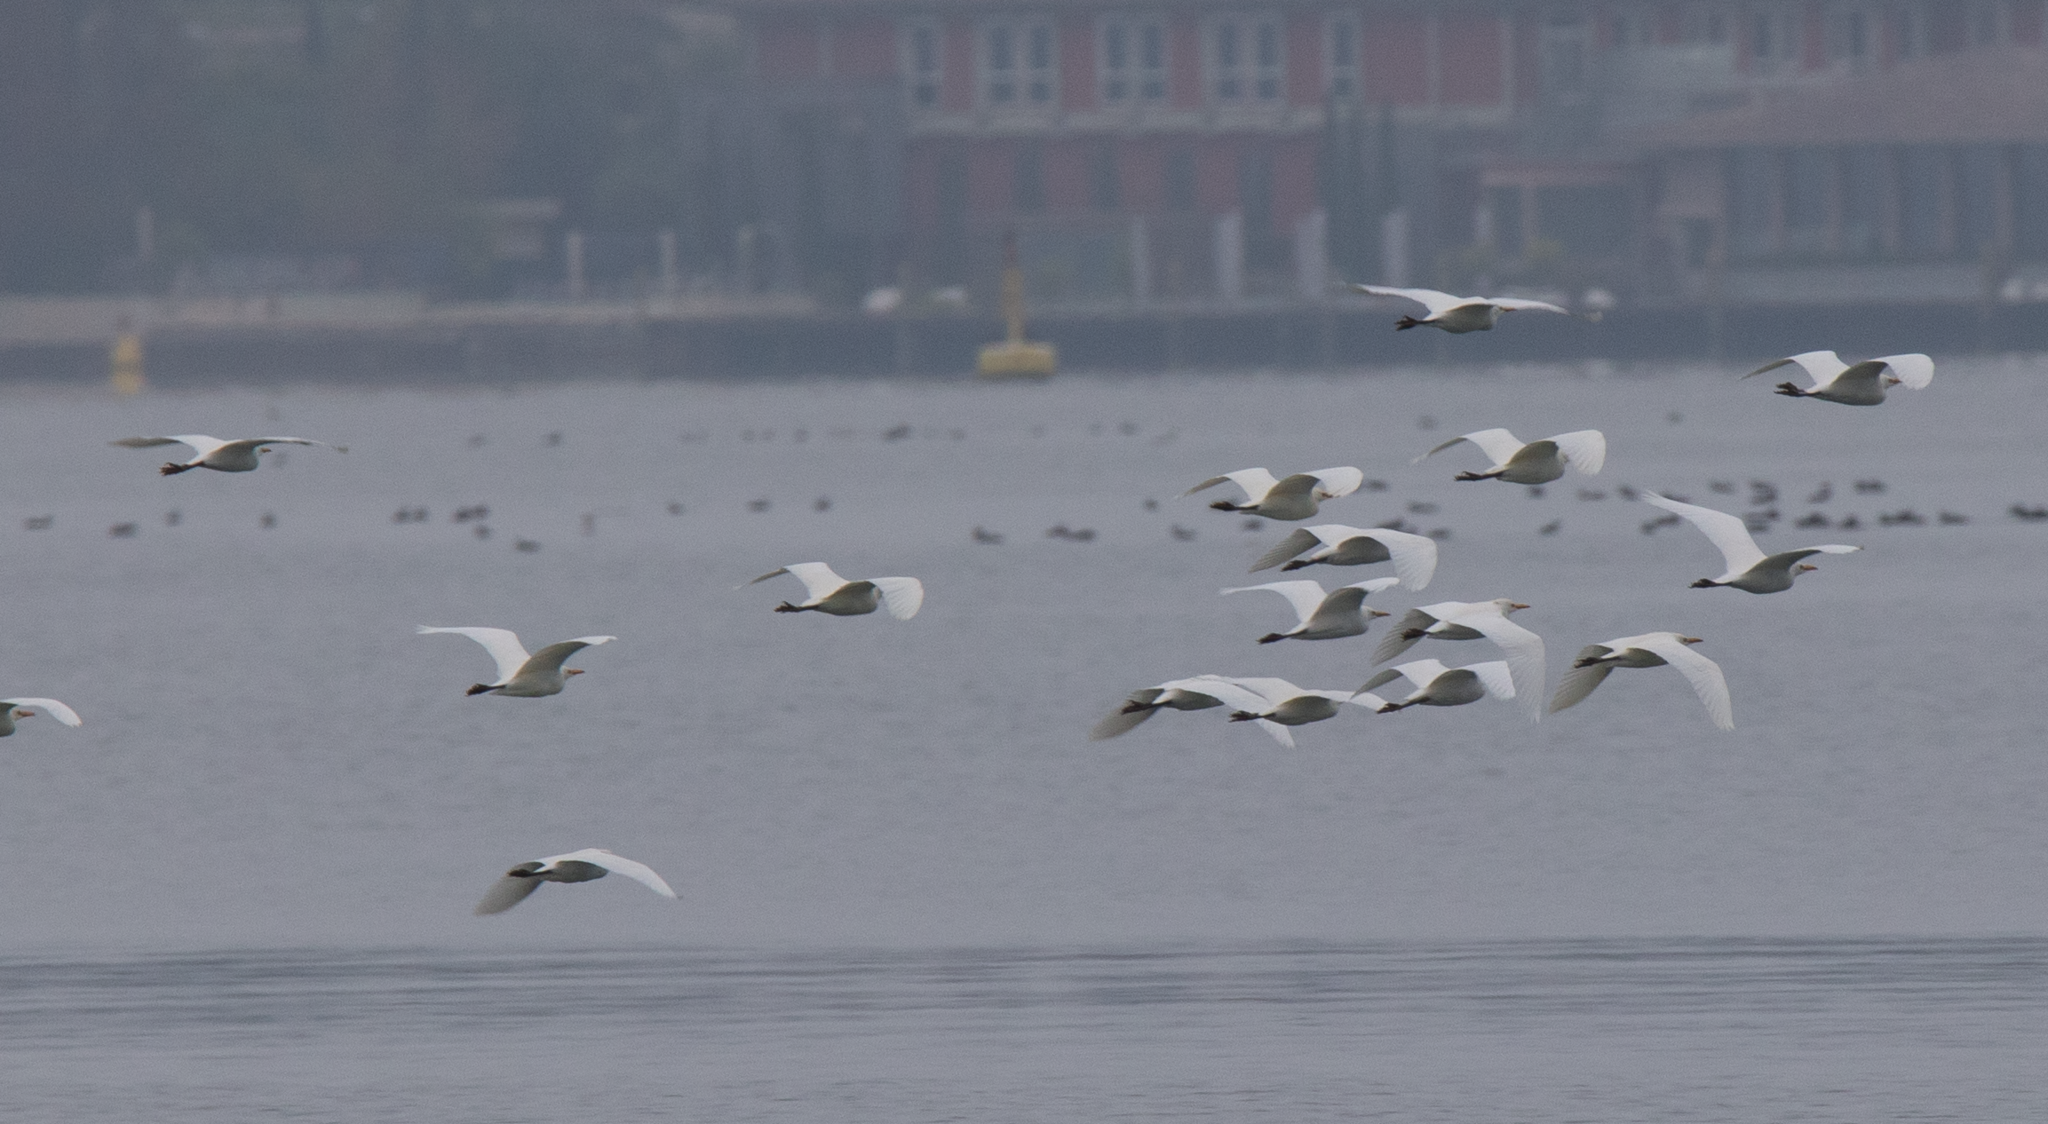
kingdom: Animalia
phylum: Chordata
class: Aves
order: Pelecaniformes
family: Ardeidae
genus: Bubulcus
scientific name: Bubulcus ibis
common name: Cattle egret
